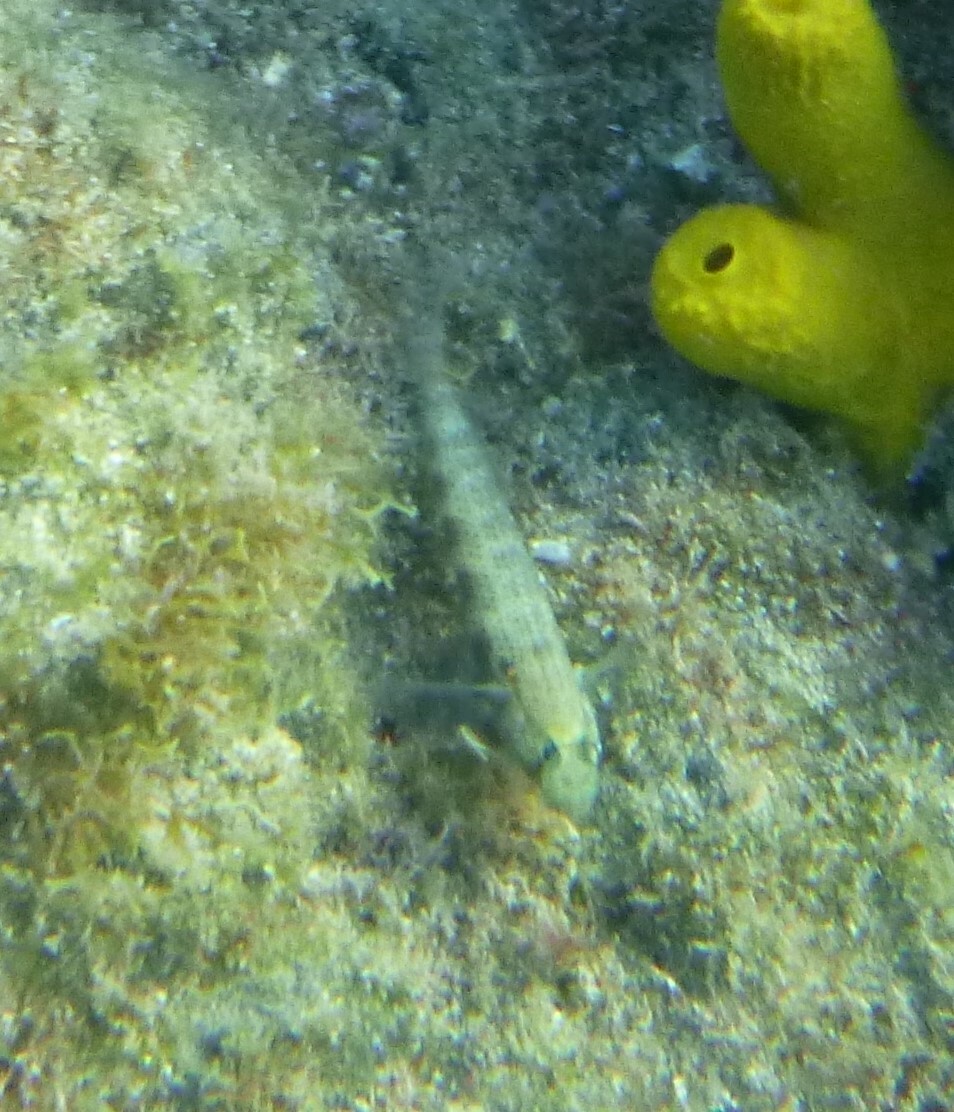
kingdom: Animalia
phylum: Chordata
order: Perciformes
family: Gobiidae
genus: Gnatholepis
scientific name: Gnatholepis thompsoni
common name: Goldspot goby
